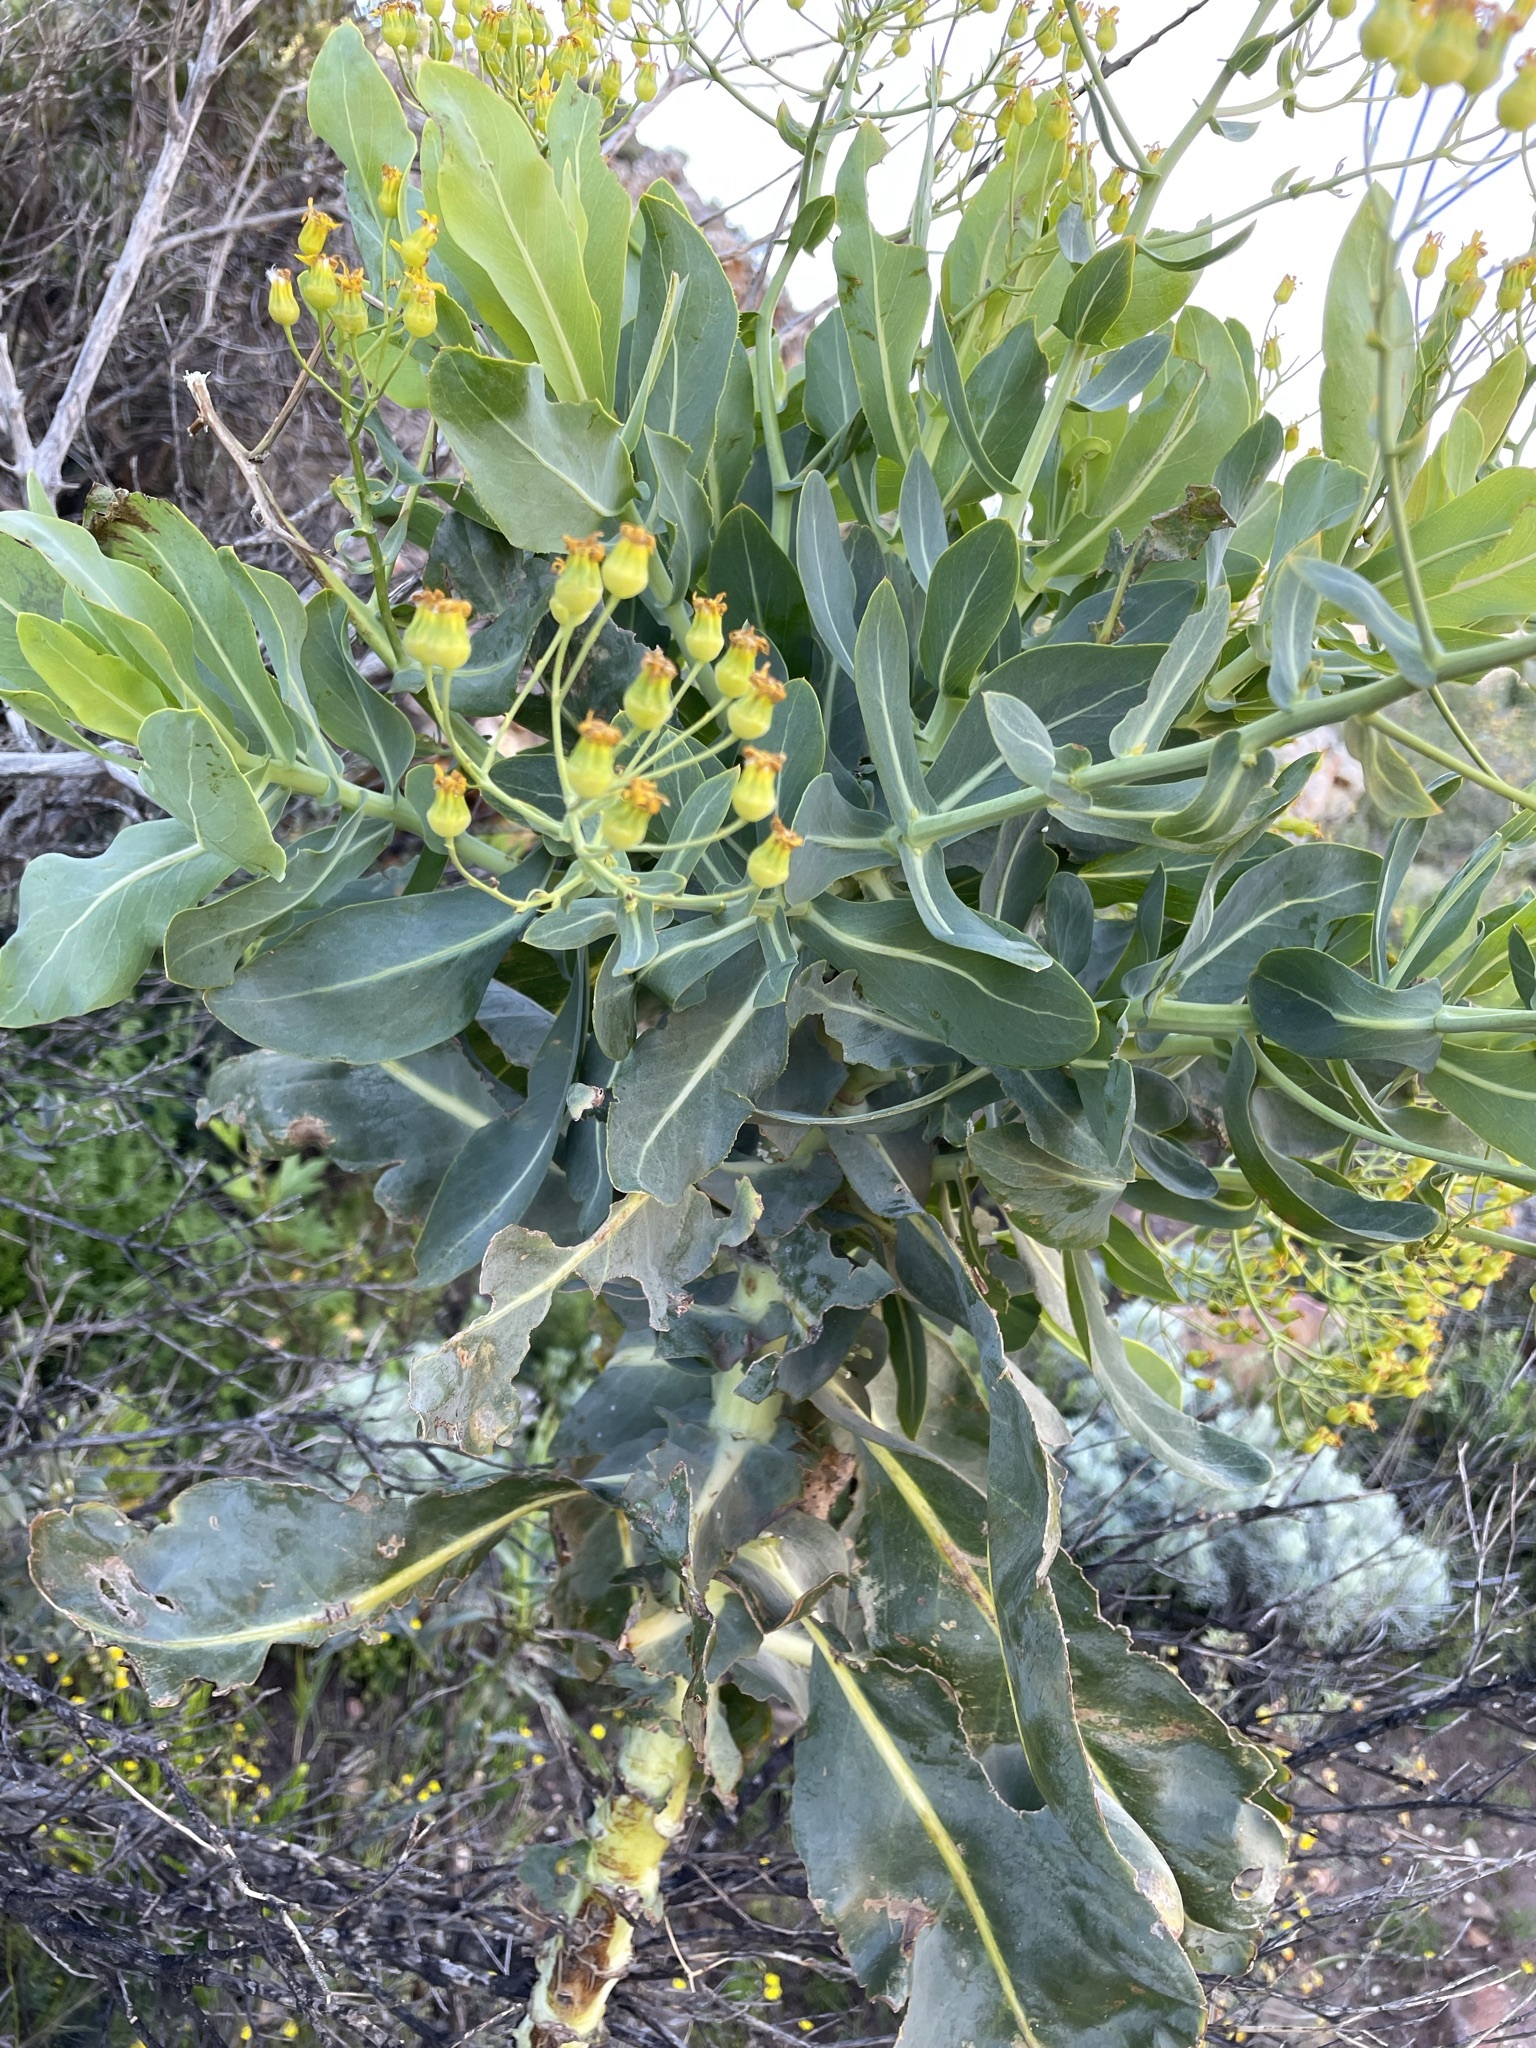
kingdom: Plantae
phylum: Tracheophyta
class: Magnoliopsida
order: Asterales
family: Asteraceae
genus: Othonna
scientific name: Othonna parviflora
